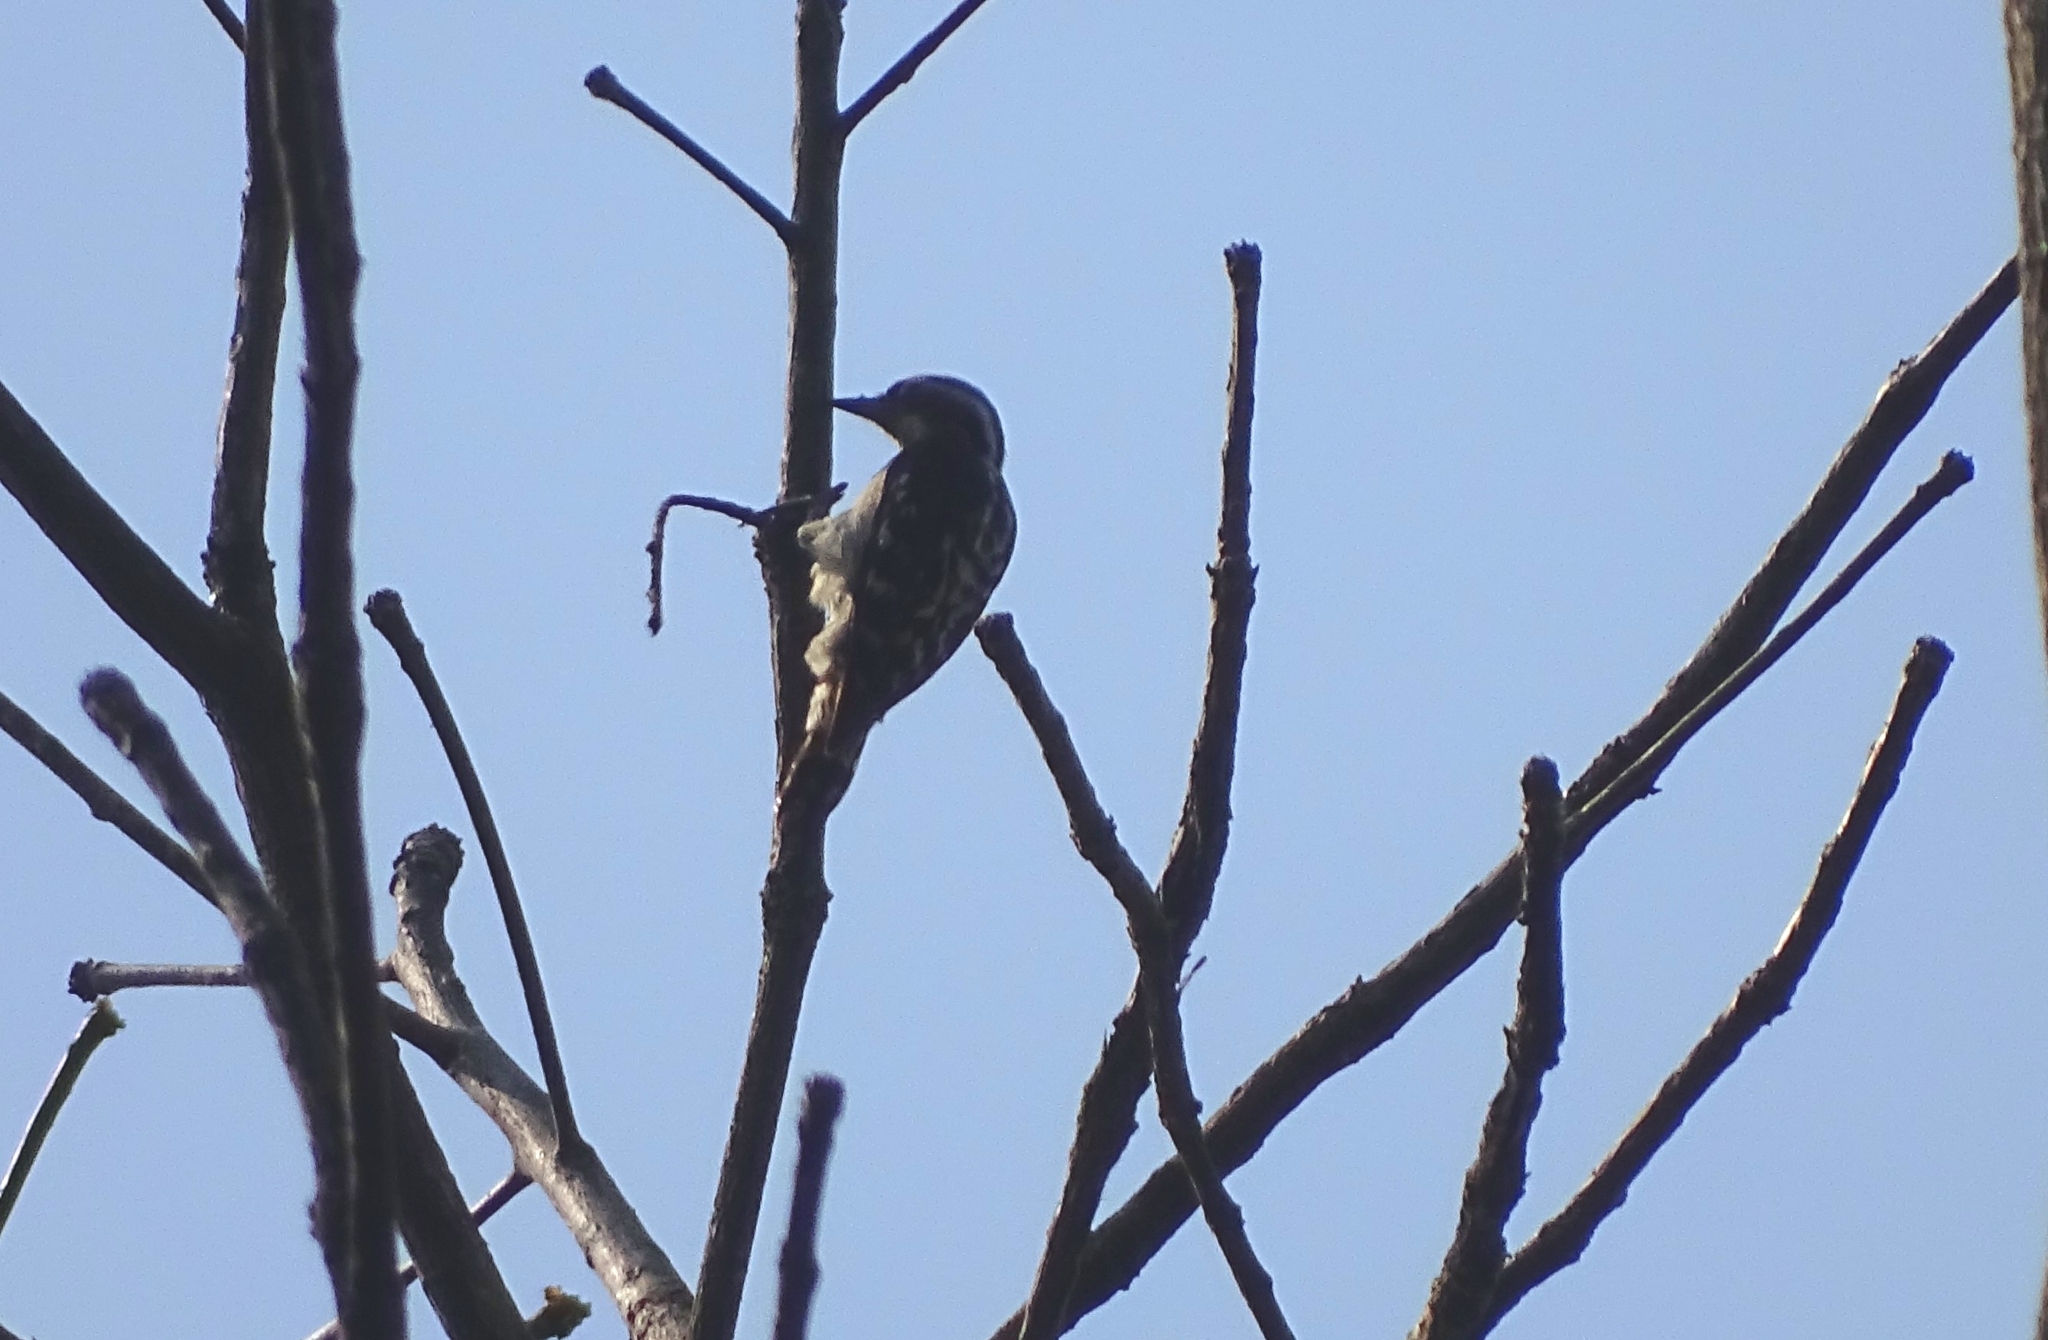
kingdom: Animalia
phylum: Chordata
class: Aves
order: Piciformes
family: Picidae
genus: Yungipicus
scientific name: Yungipicus nanus
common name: Brown-capped pygmy woodpecker
